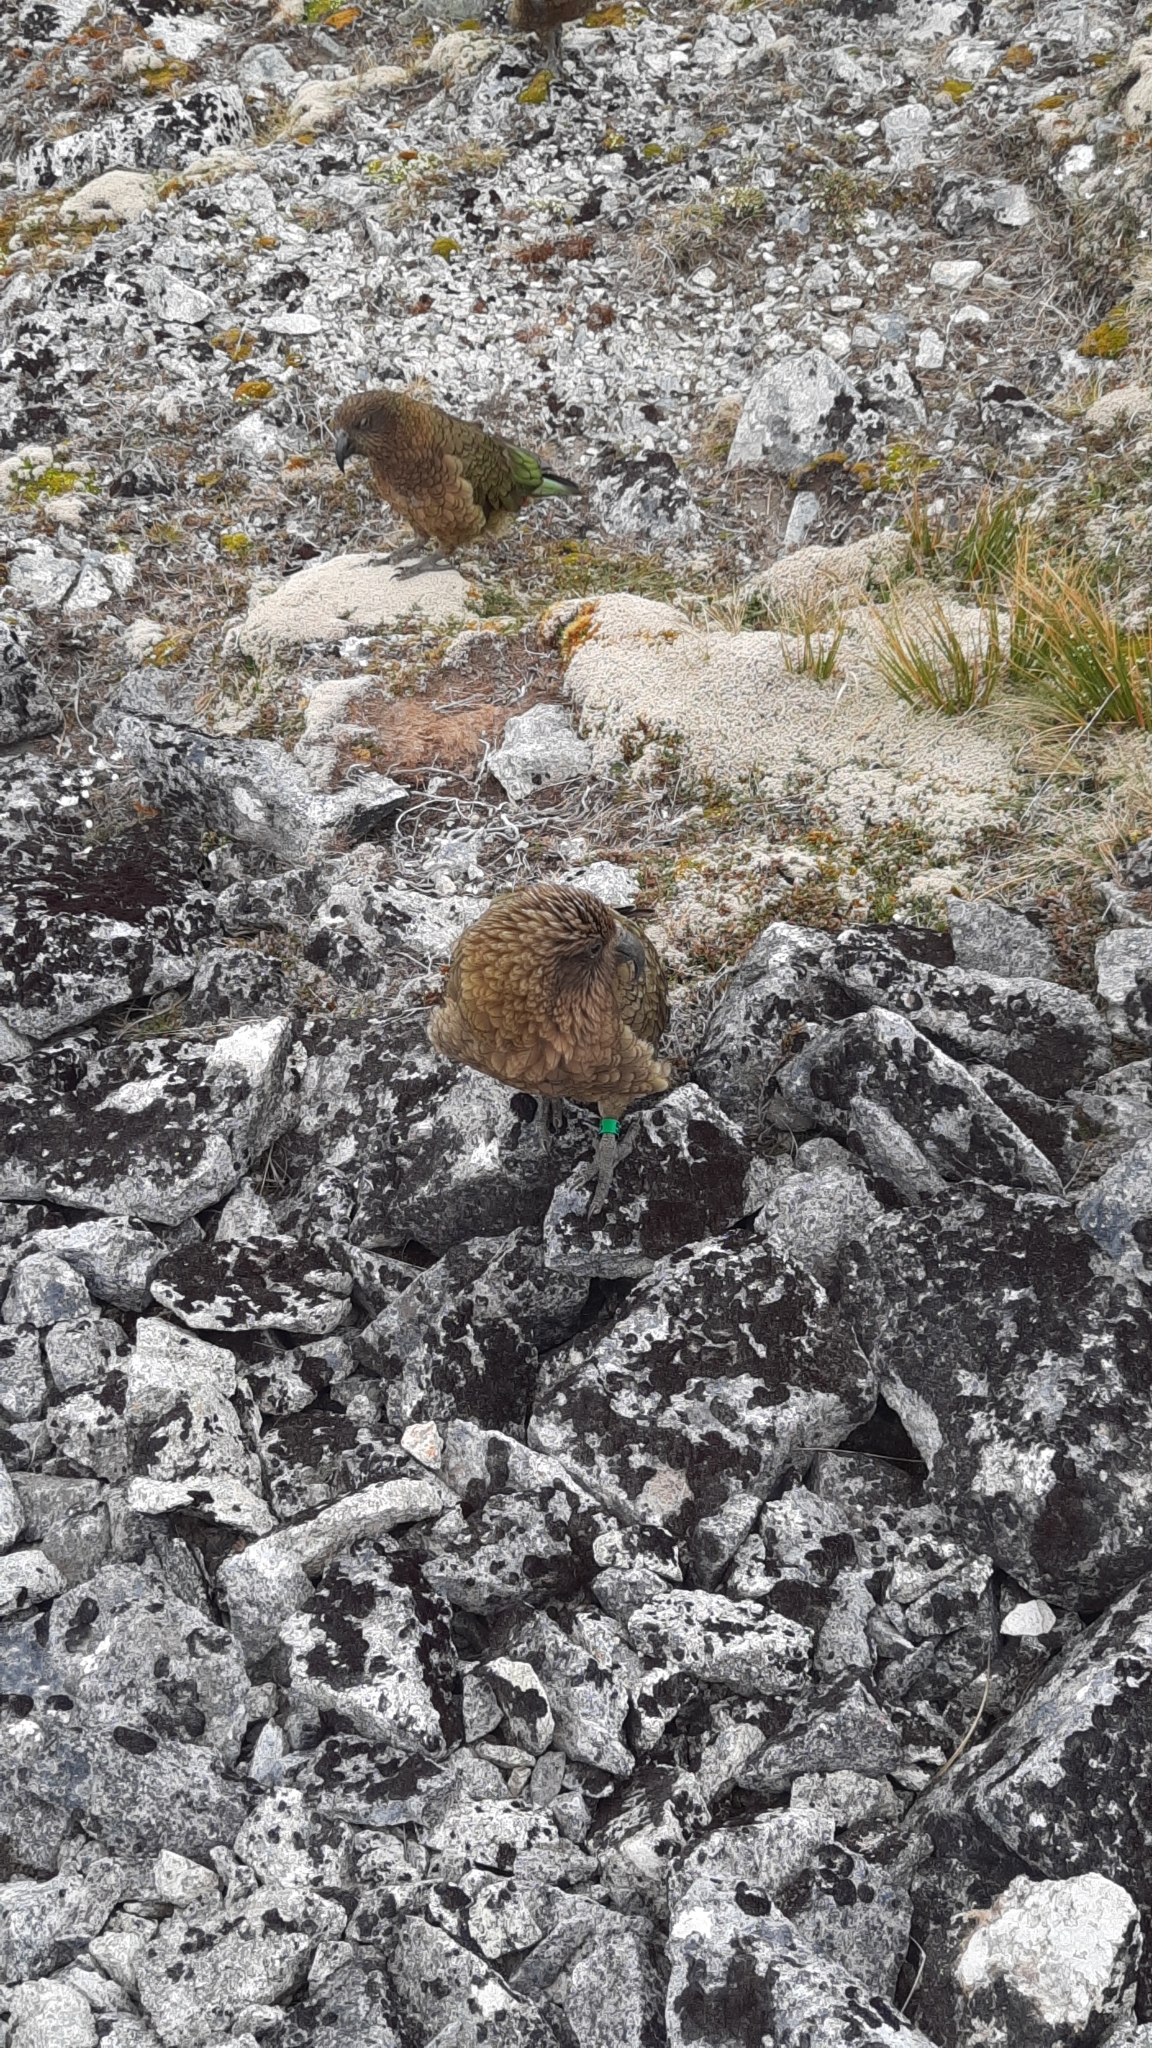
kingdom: Animalia
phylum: Chordata
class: Aves
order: Psittaciformes
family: Psittacidae
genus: Nestor
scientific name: Nestor notabilis
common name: Kea
